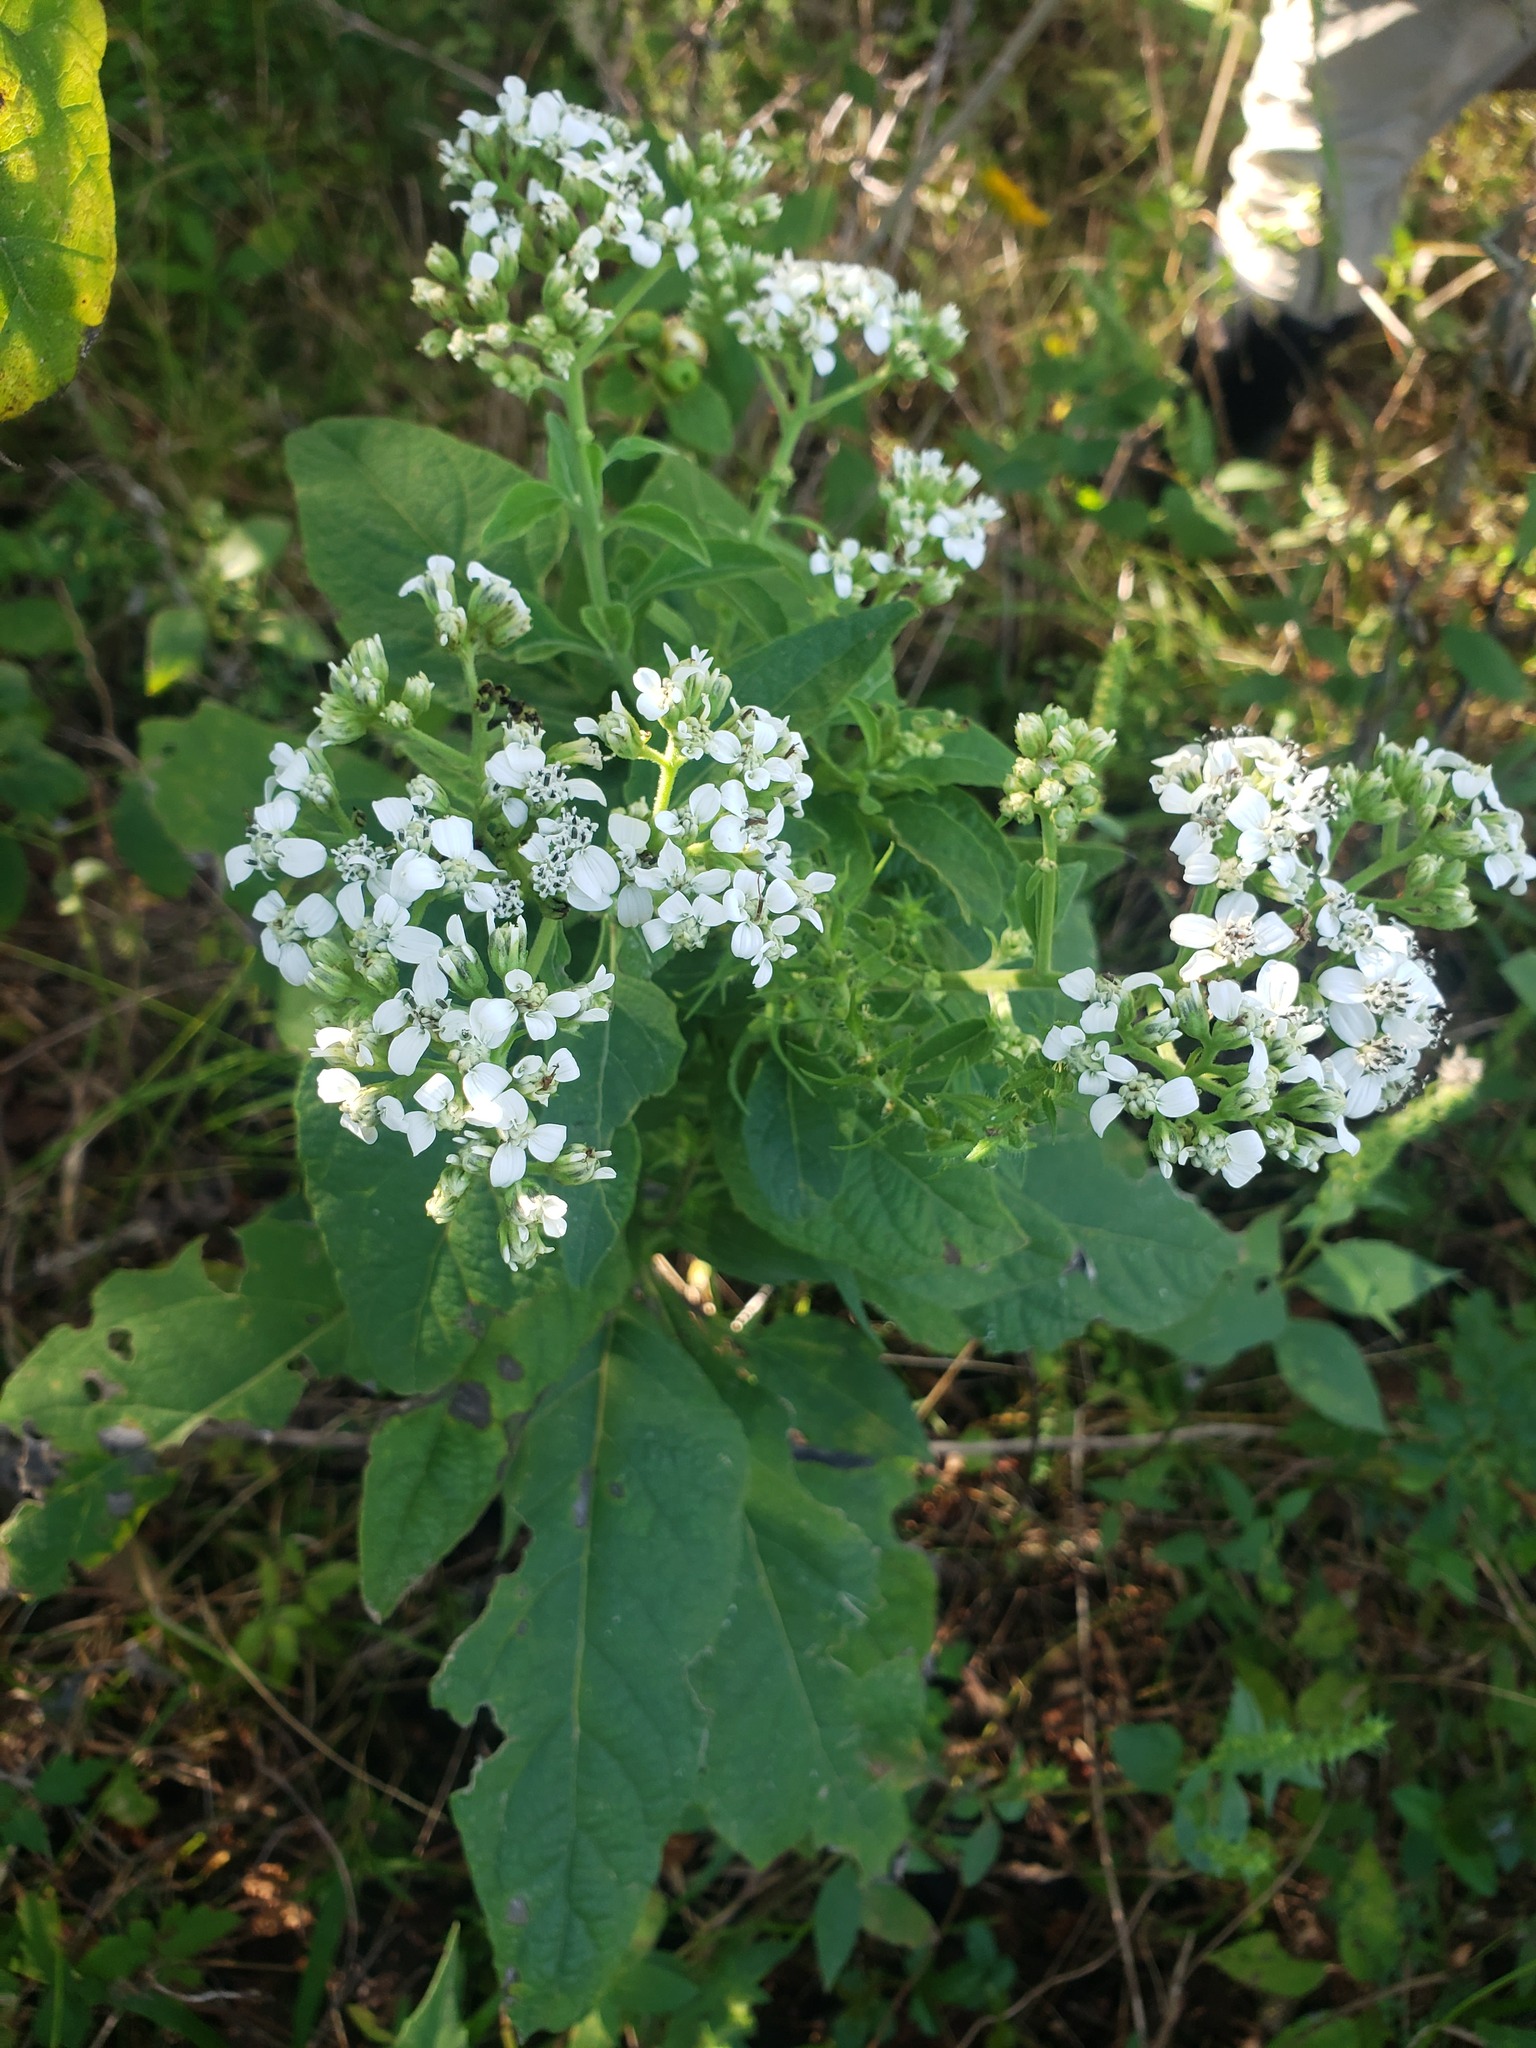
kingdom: Plantae
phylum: Tracheophyta
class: Magnoliopsida
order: Asterales
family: Asteraceae
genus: Verbesina
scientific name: Verbesina virginica
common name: Frostweed
